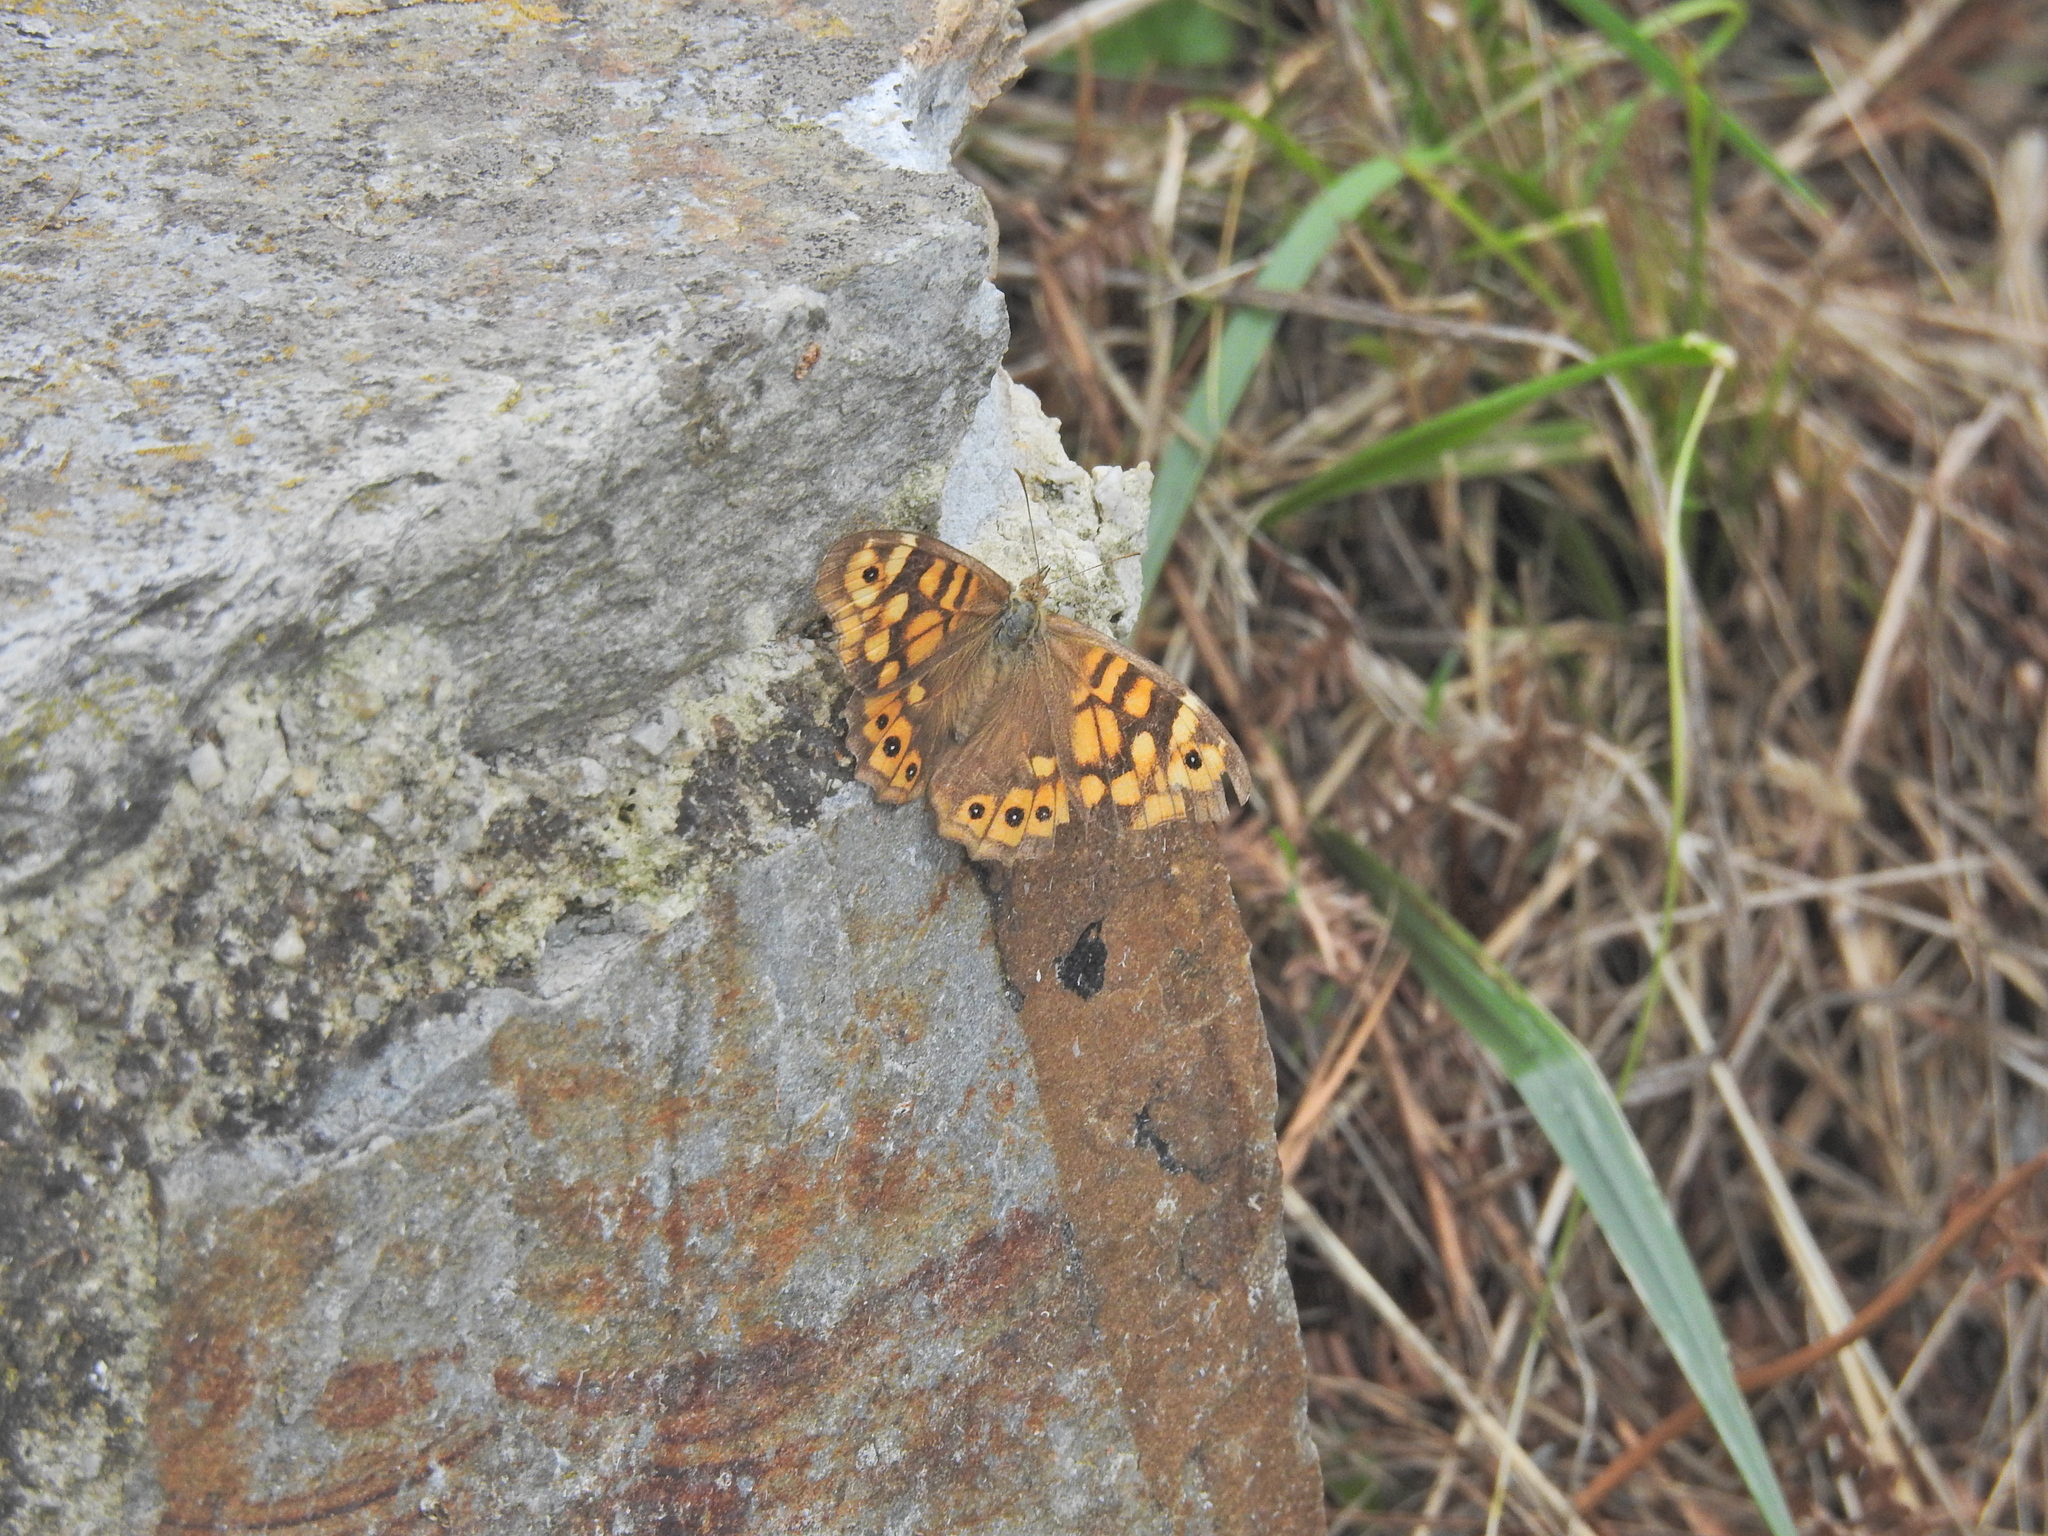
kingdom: Animalia
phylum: Arthropoda
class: Insecta
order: Lepidoptera
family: Nymphalidae
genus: Pararge
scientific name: Pararge aegeria
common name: Speckled wood
